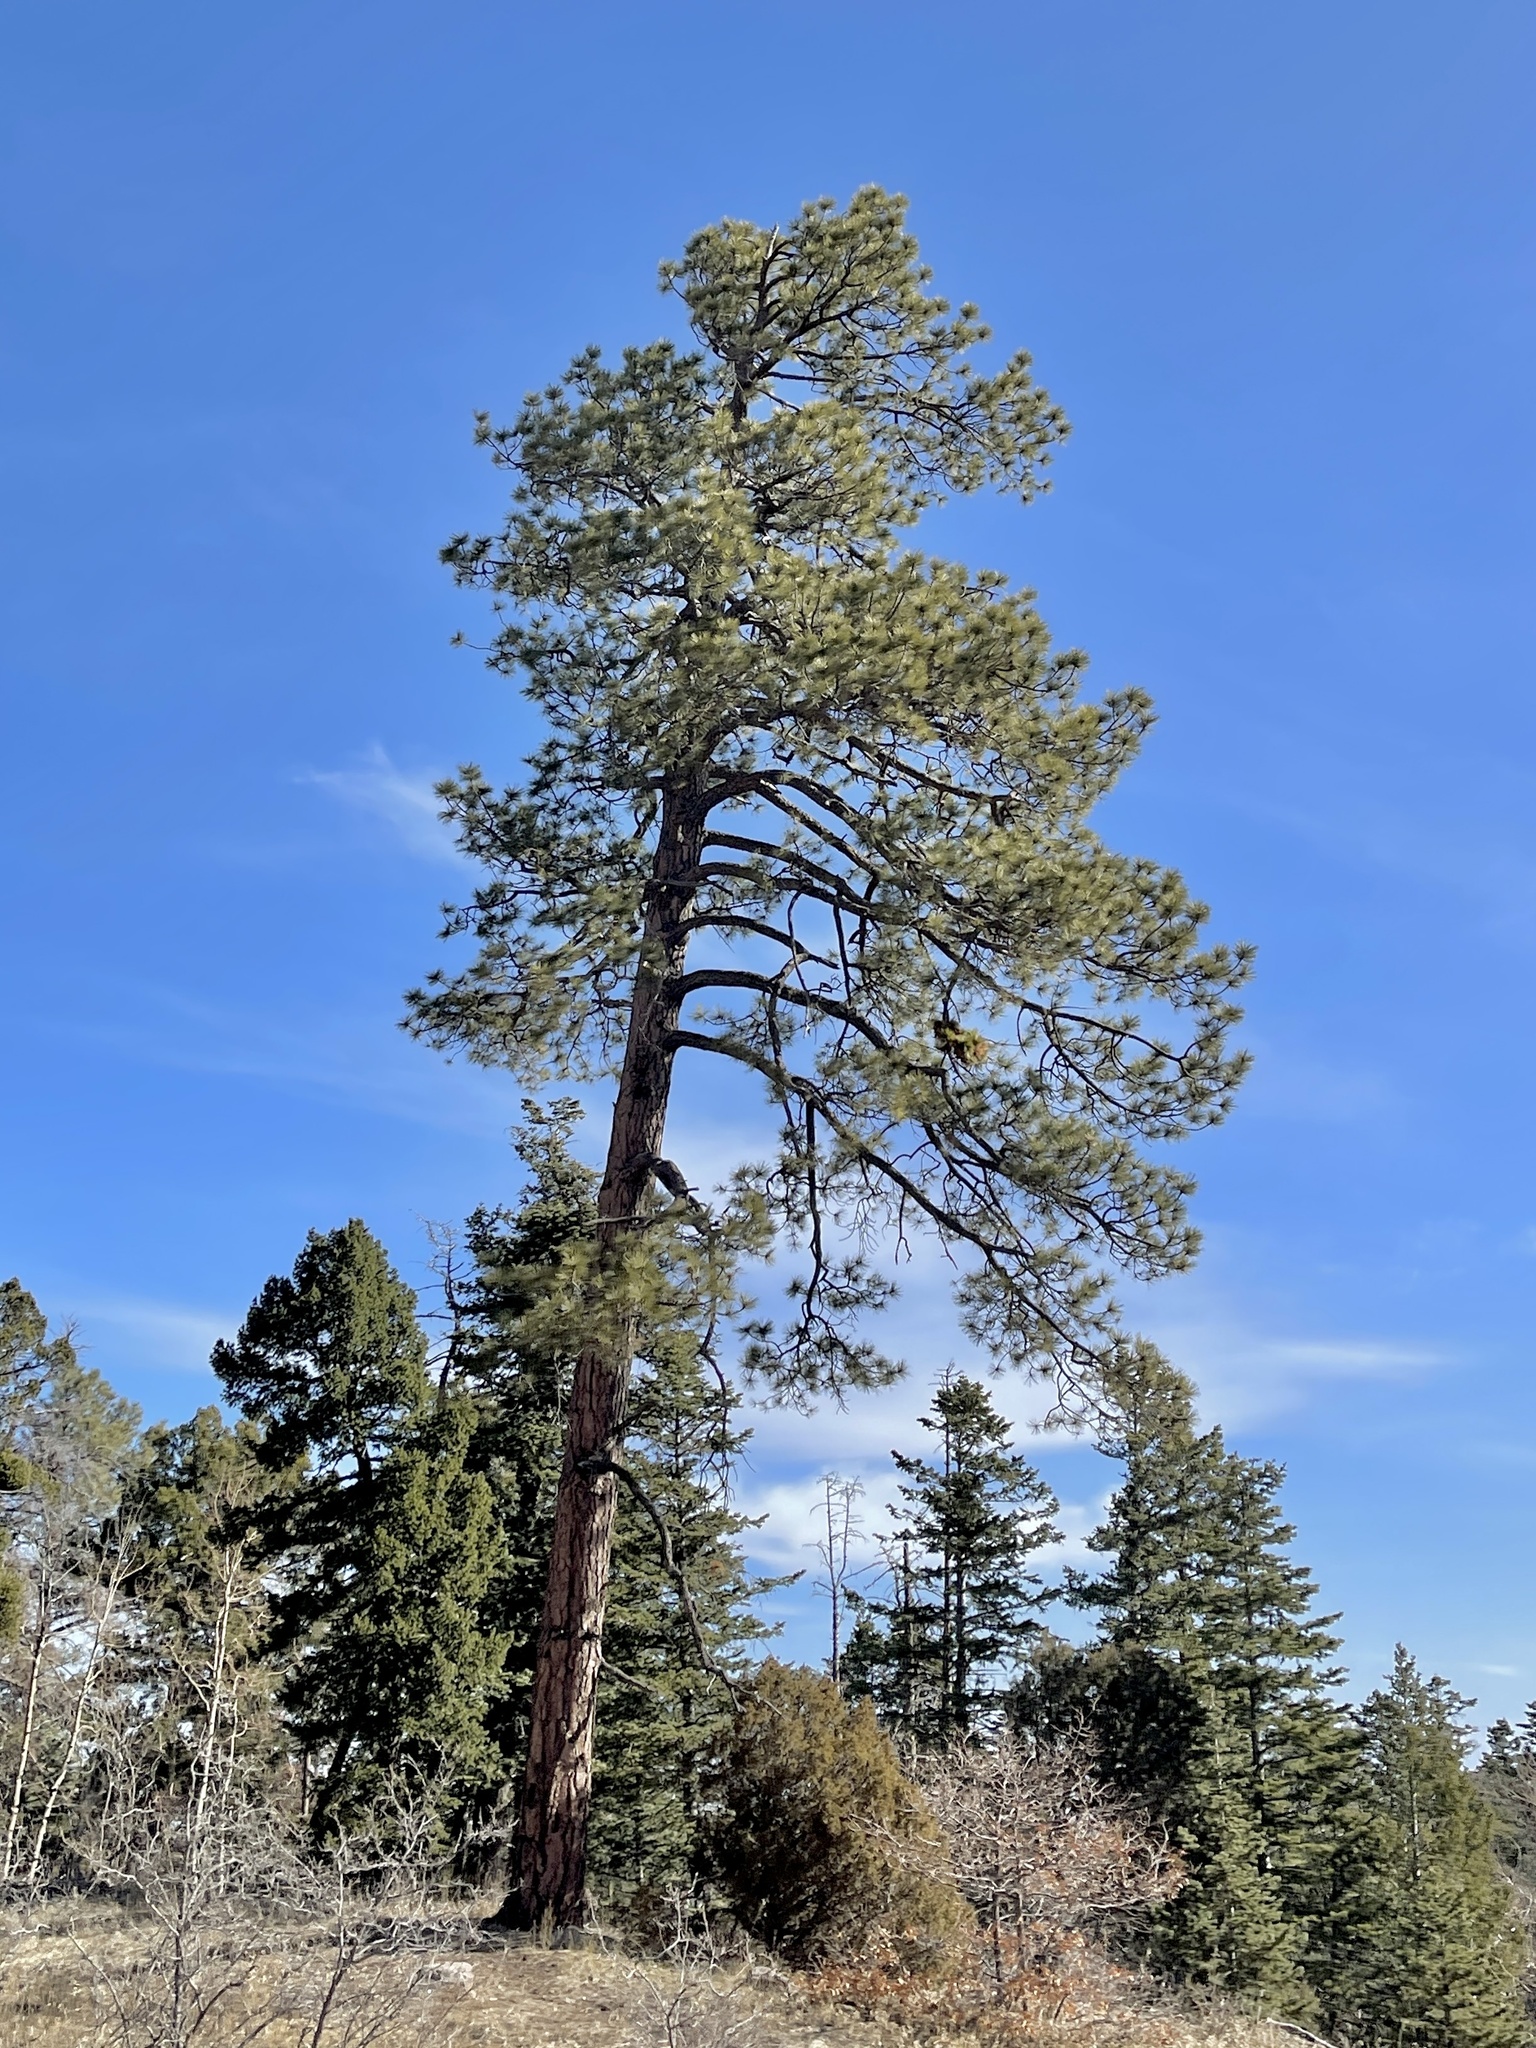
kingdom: Plantae
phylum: Tracheophyta
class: Pinopsida
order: Pinales
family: Pinaceae
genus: Pinus
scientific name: Pinus ponderosa
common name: Western yellow-pine
